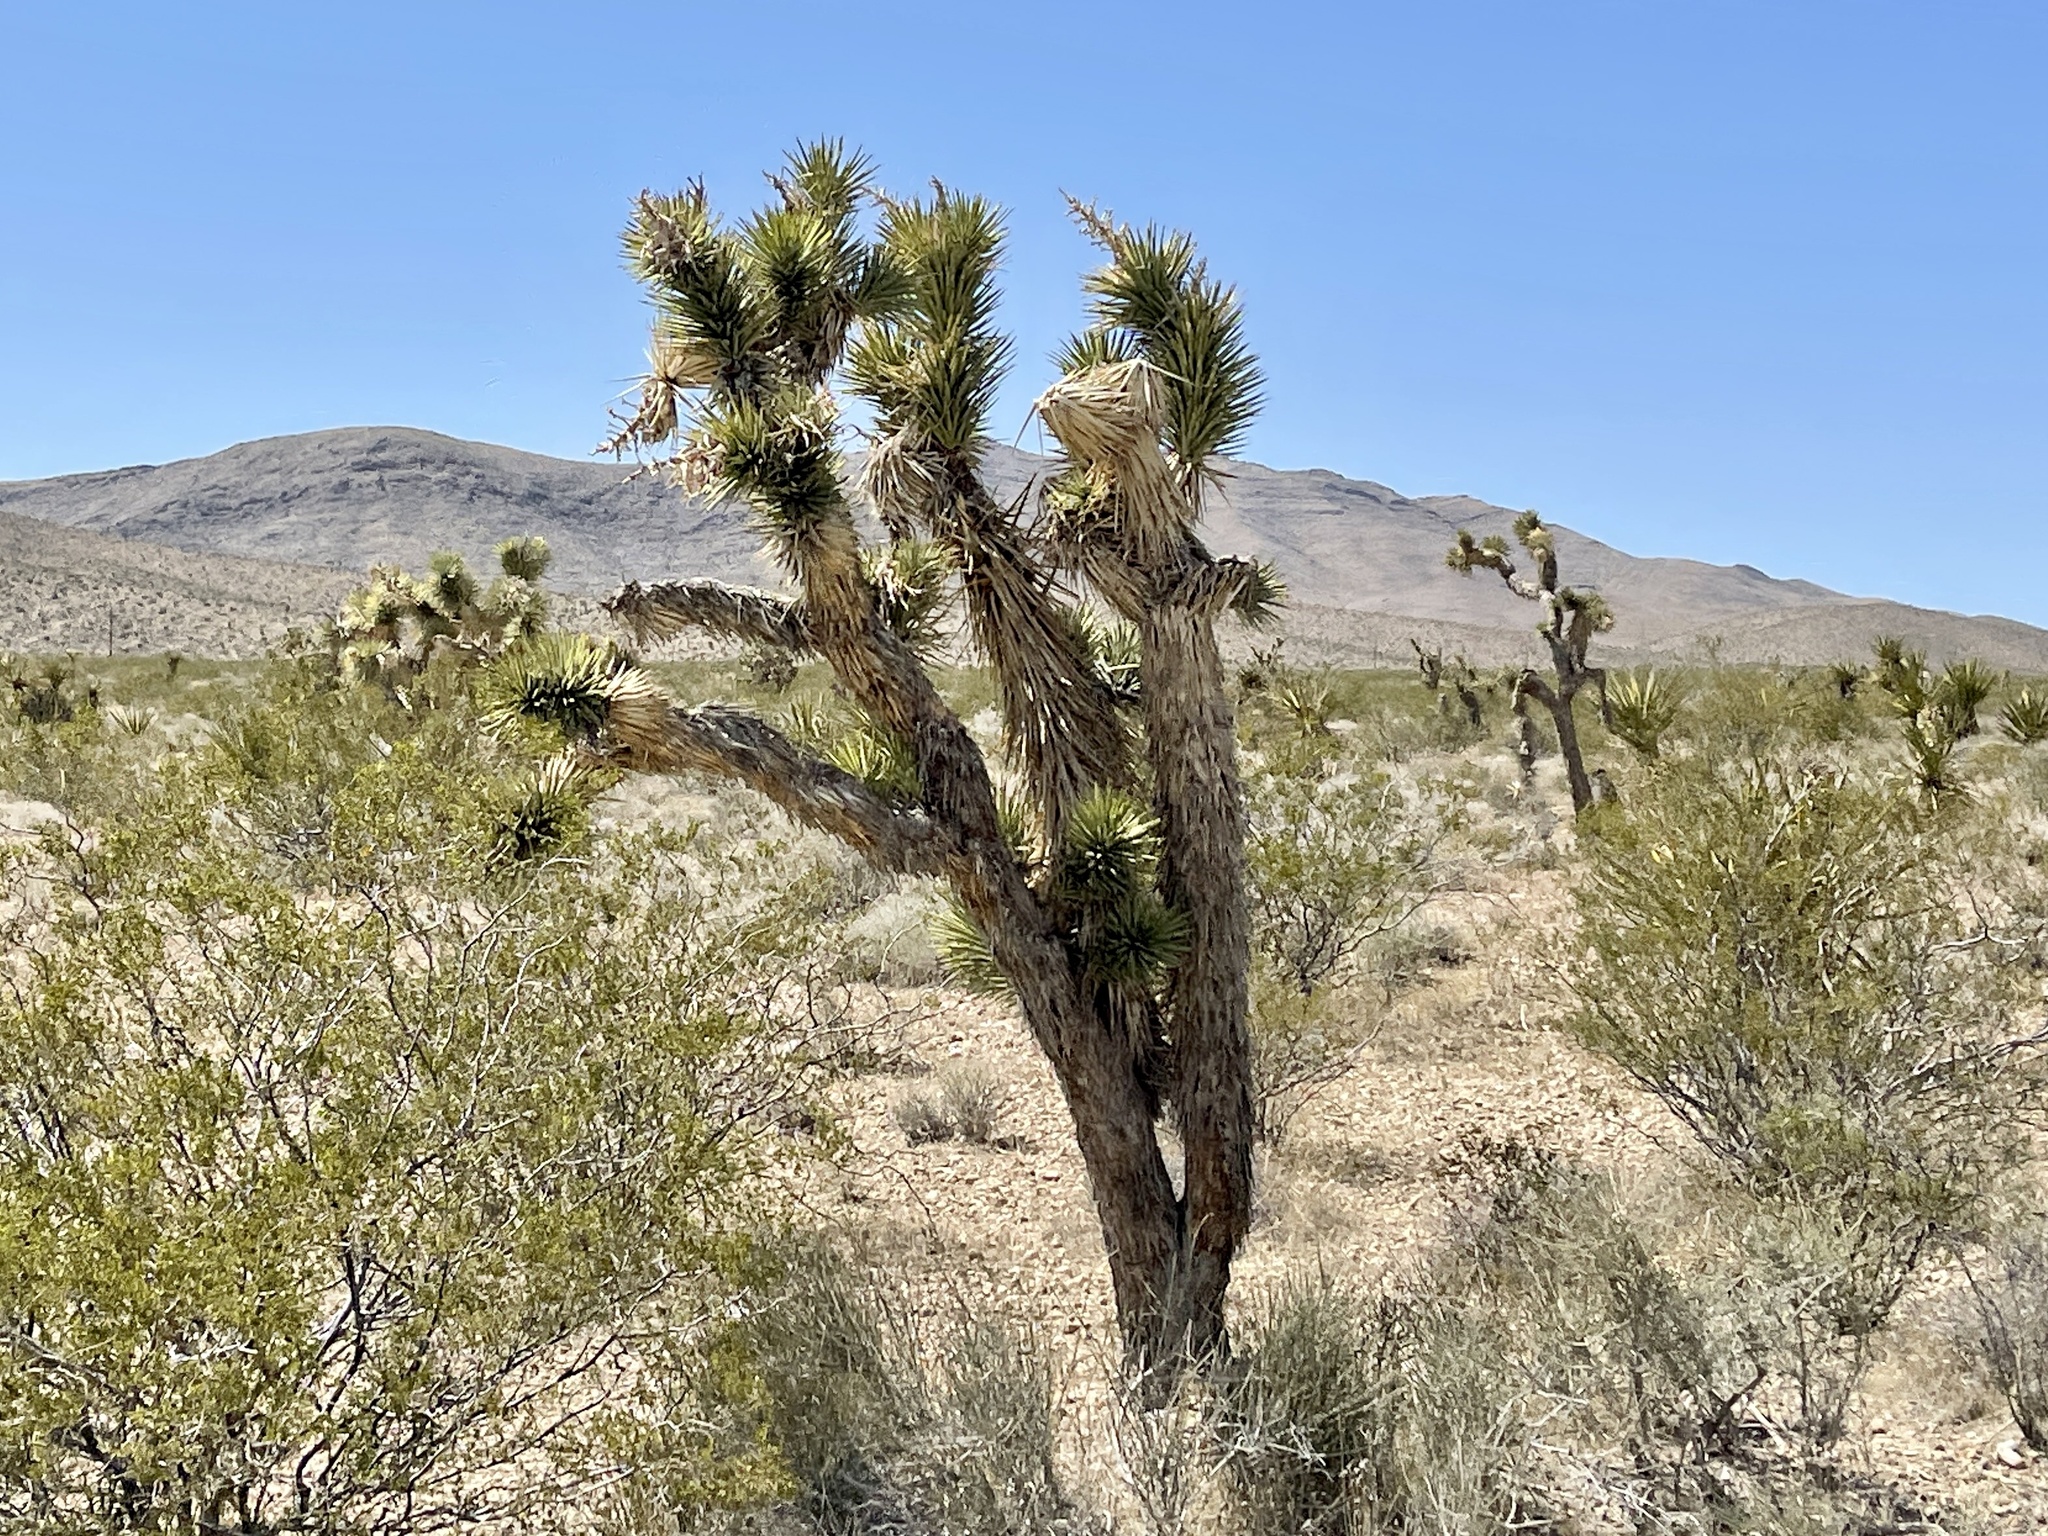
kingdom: Plantae
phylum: Tracheophyta
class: Liliopsida
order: Asparagales
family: Asparagaceae
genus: Yucca
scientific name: Yucca brevifolia
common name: Joshua tree
